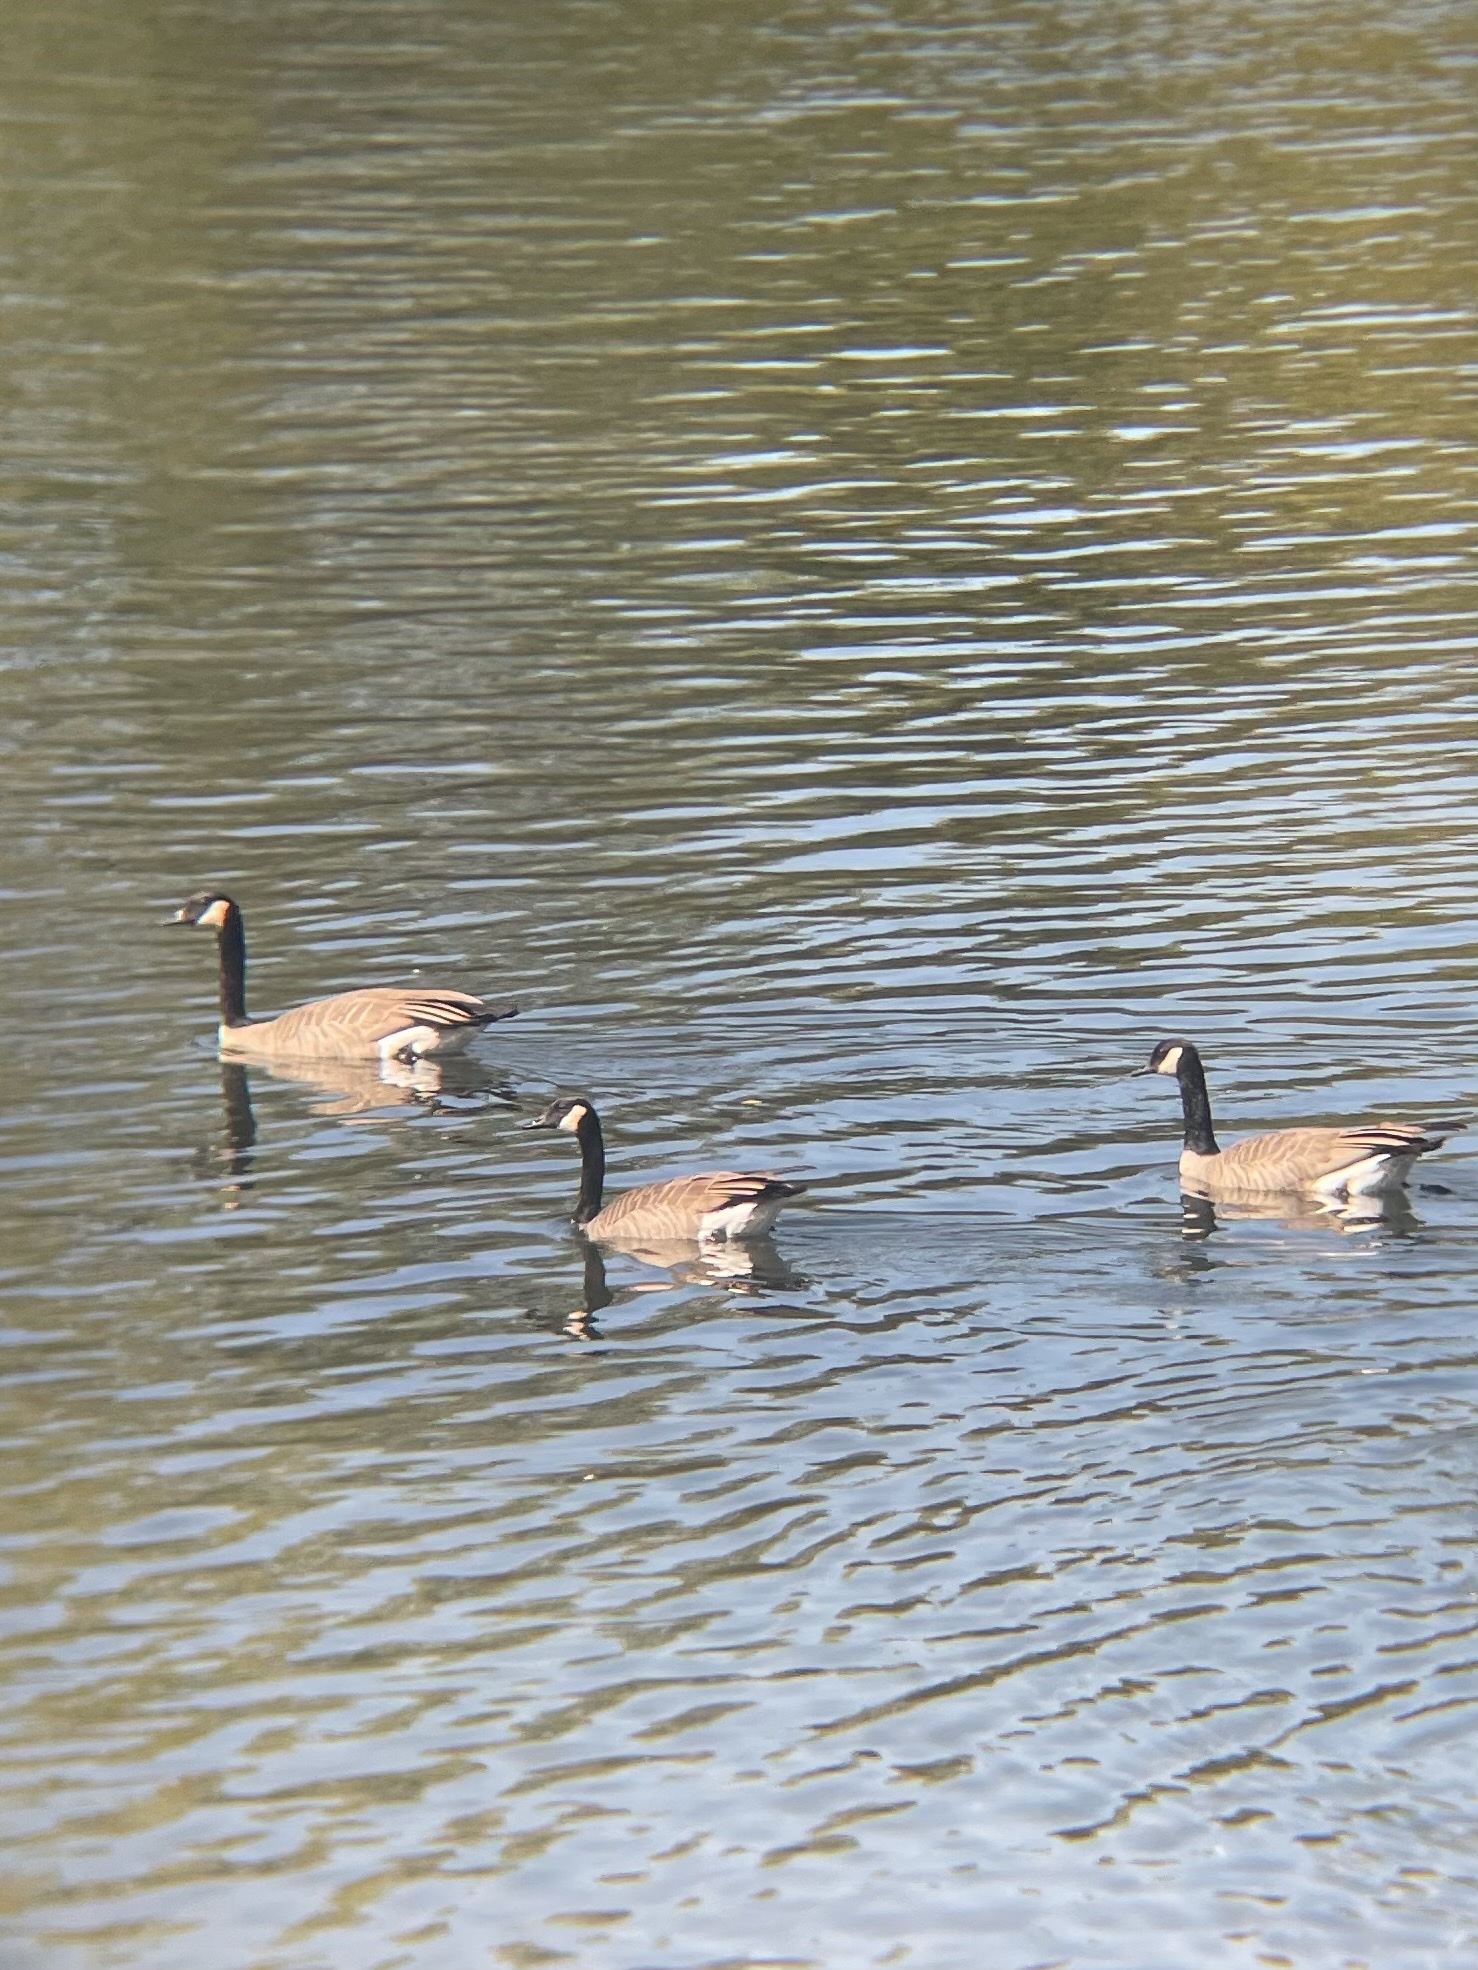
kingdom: Animalia
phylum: Chordata
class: Aves
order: Anseriformes
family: Anatidae
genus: Branta
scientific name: Branta canadensis
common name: Canada goose
